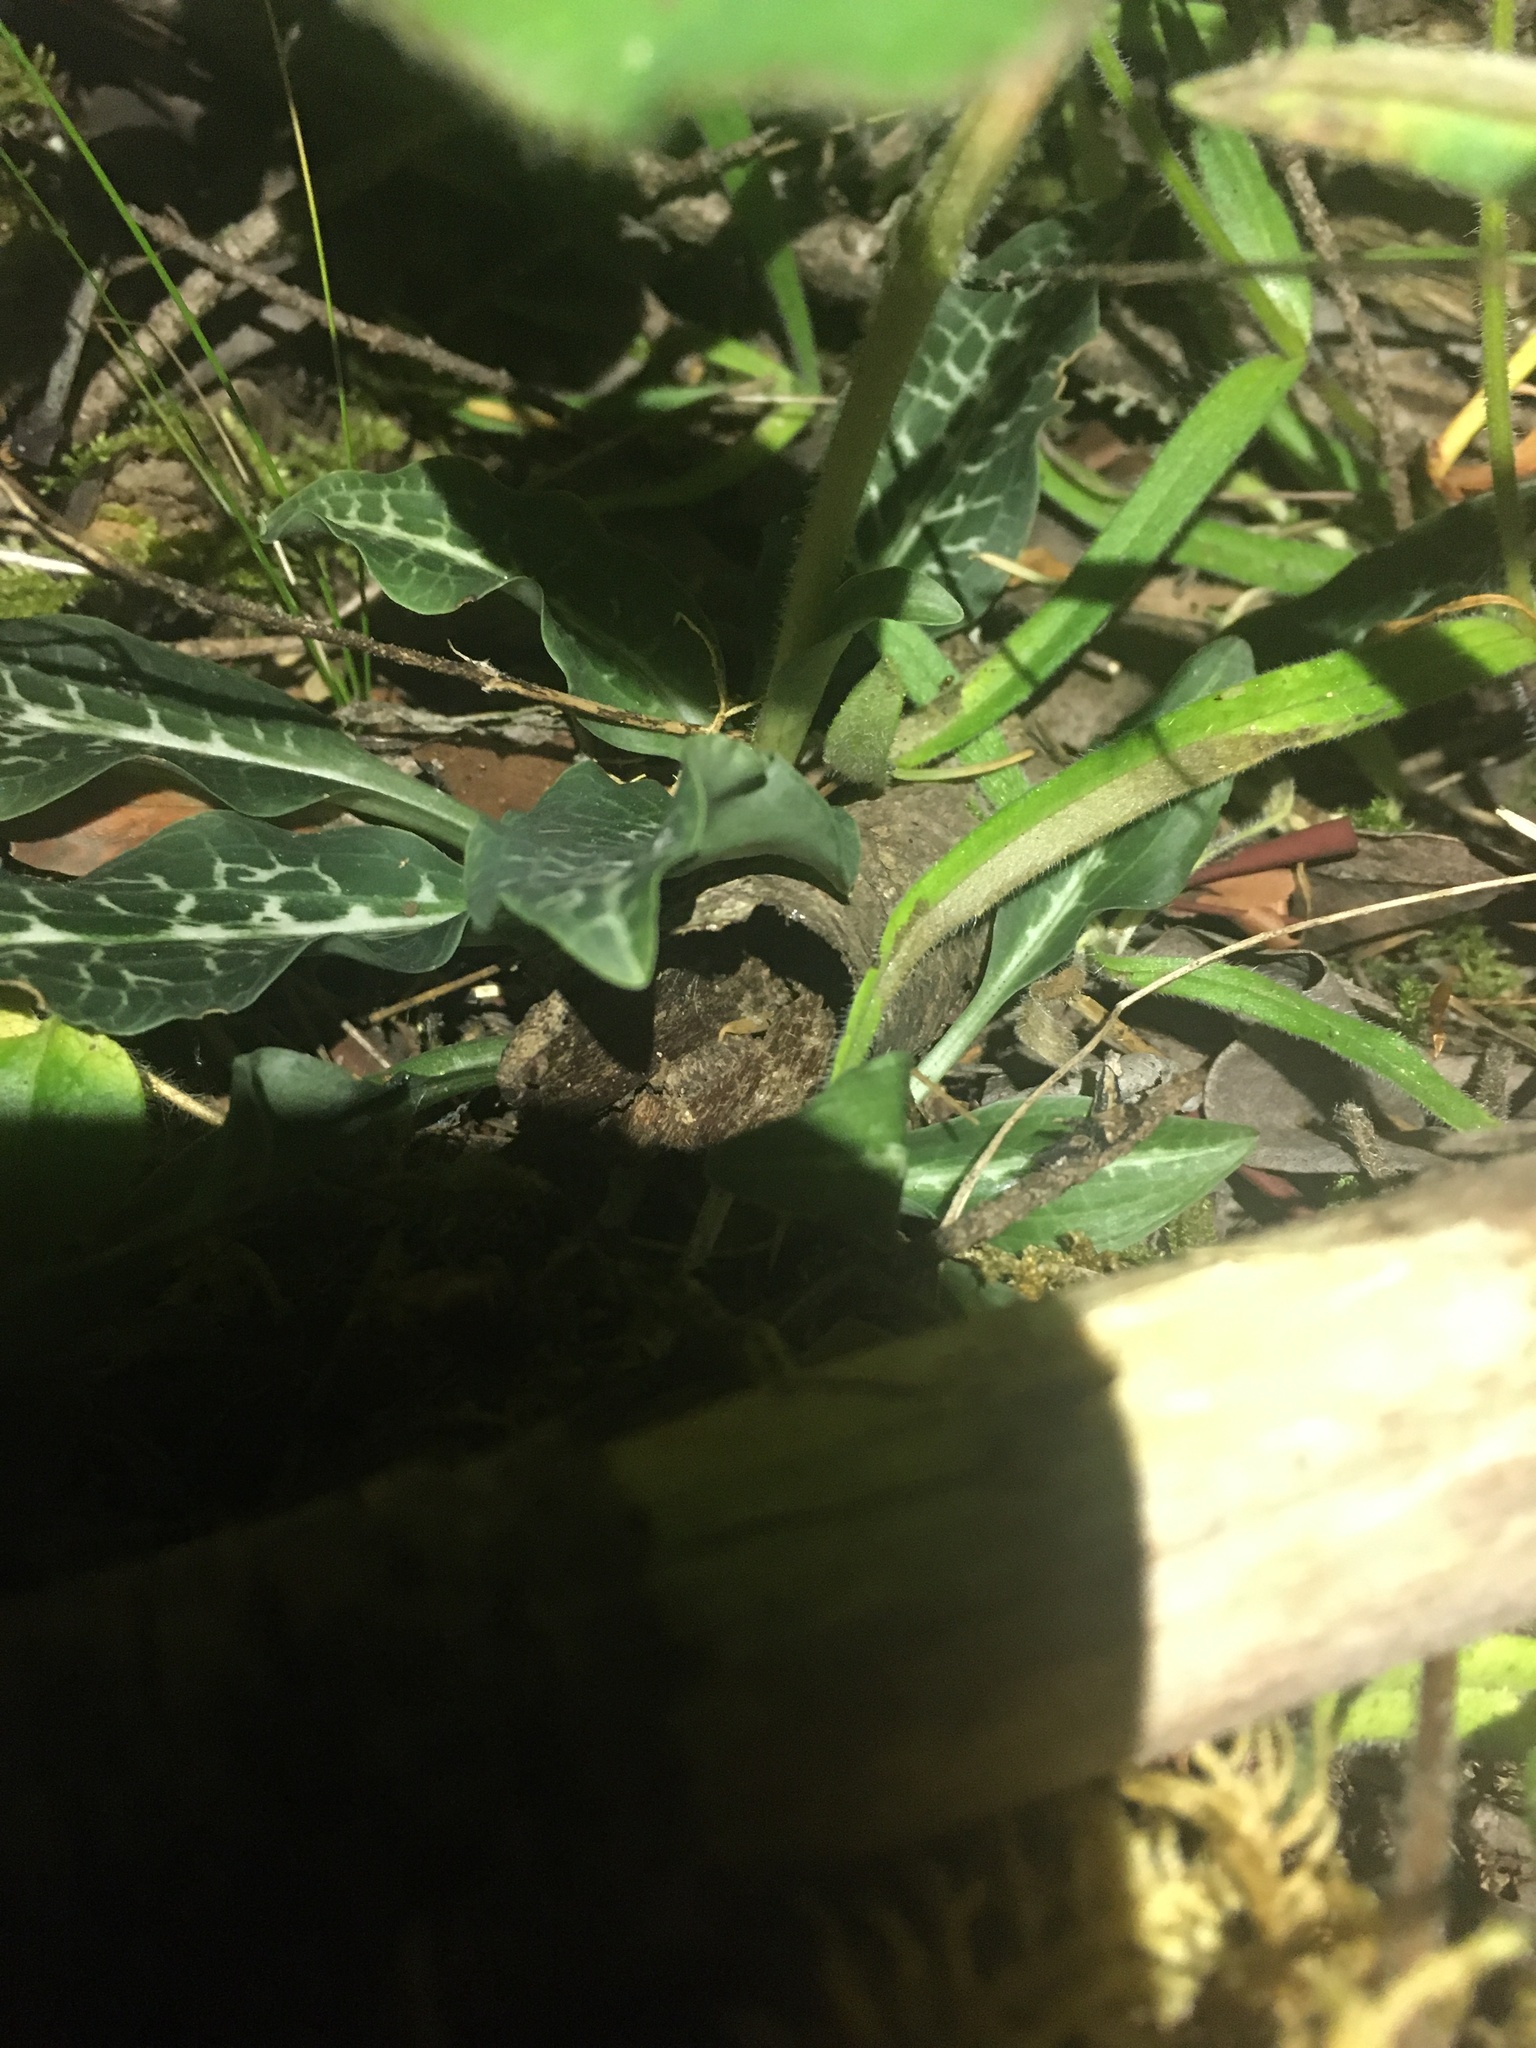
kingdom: Plantae
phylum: Tracheophyta
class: Liliopsida
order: Asparagales
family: Orchidaceae
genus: Goodyera
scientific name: Goodyera oblongifolia
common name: Giant rattlesnake-plantain
